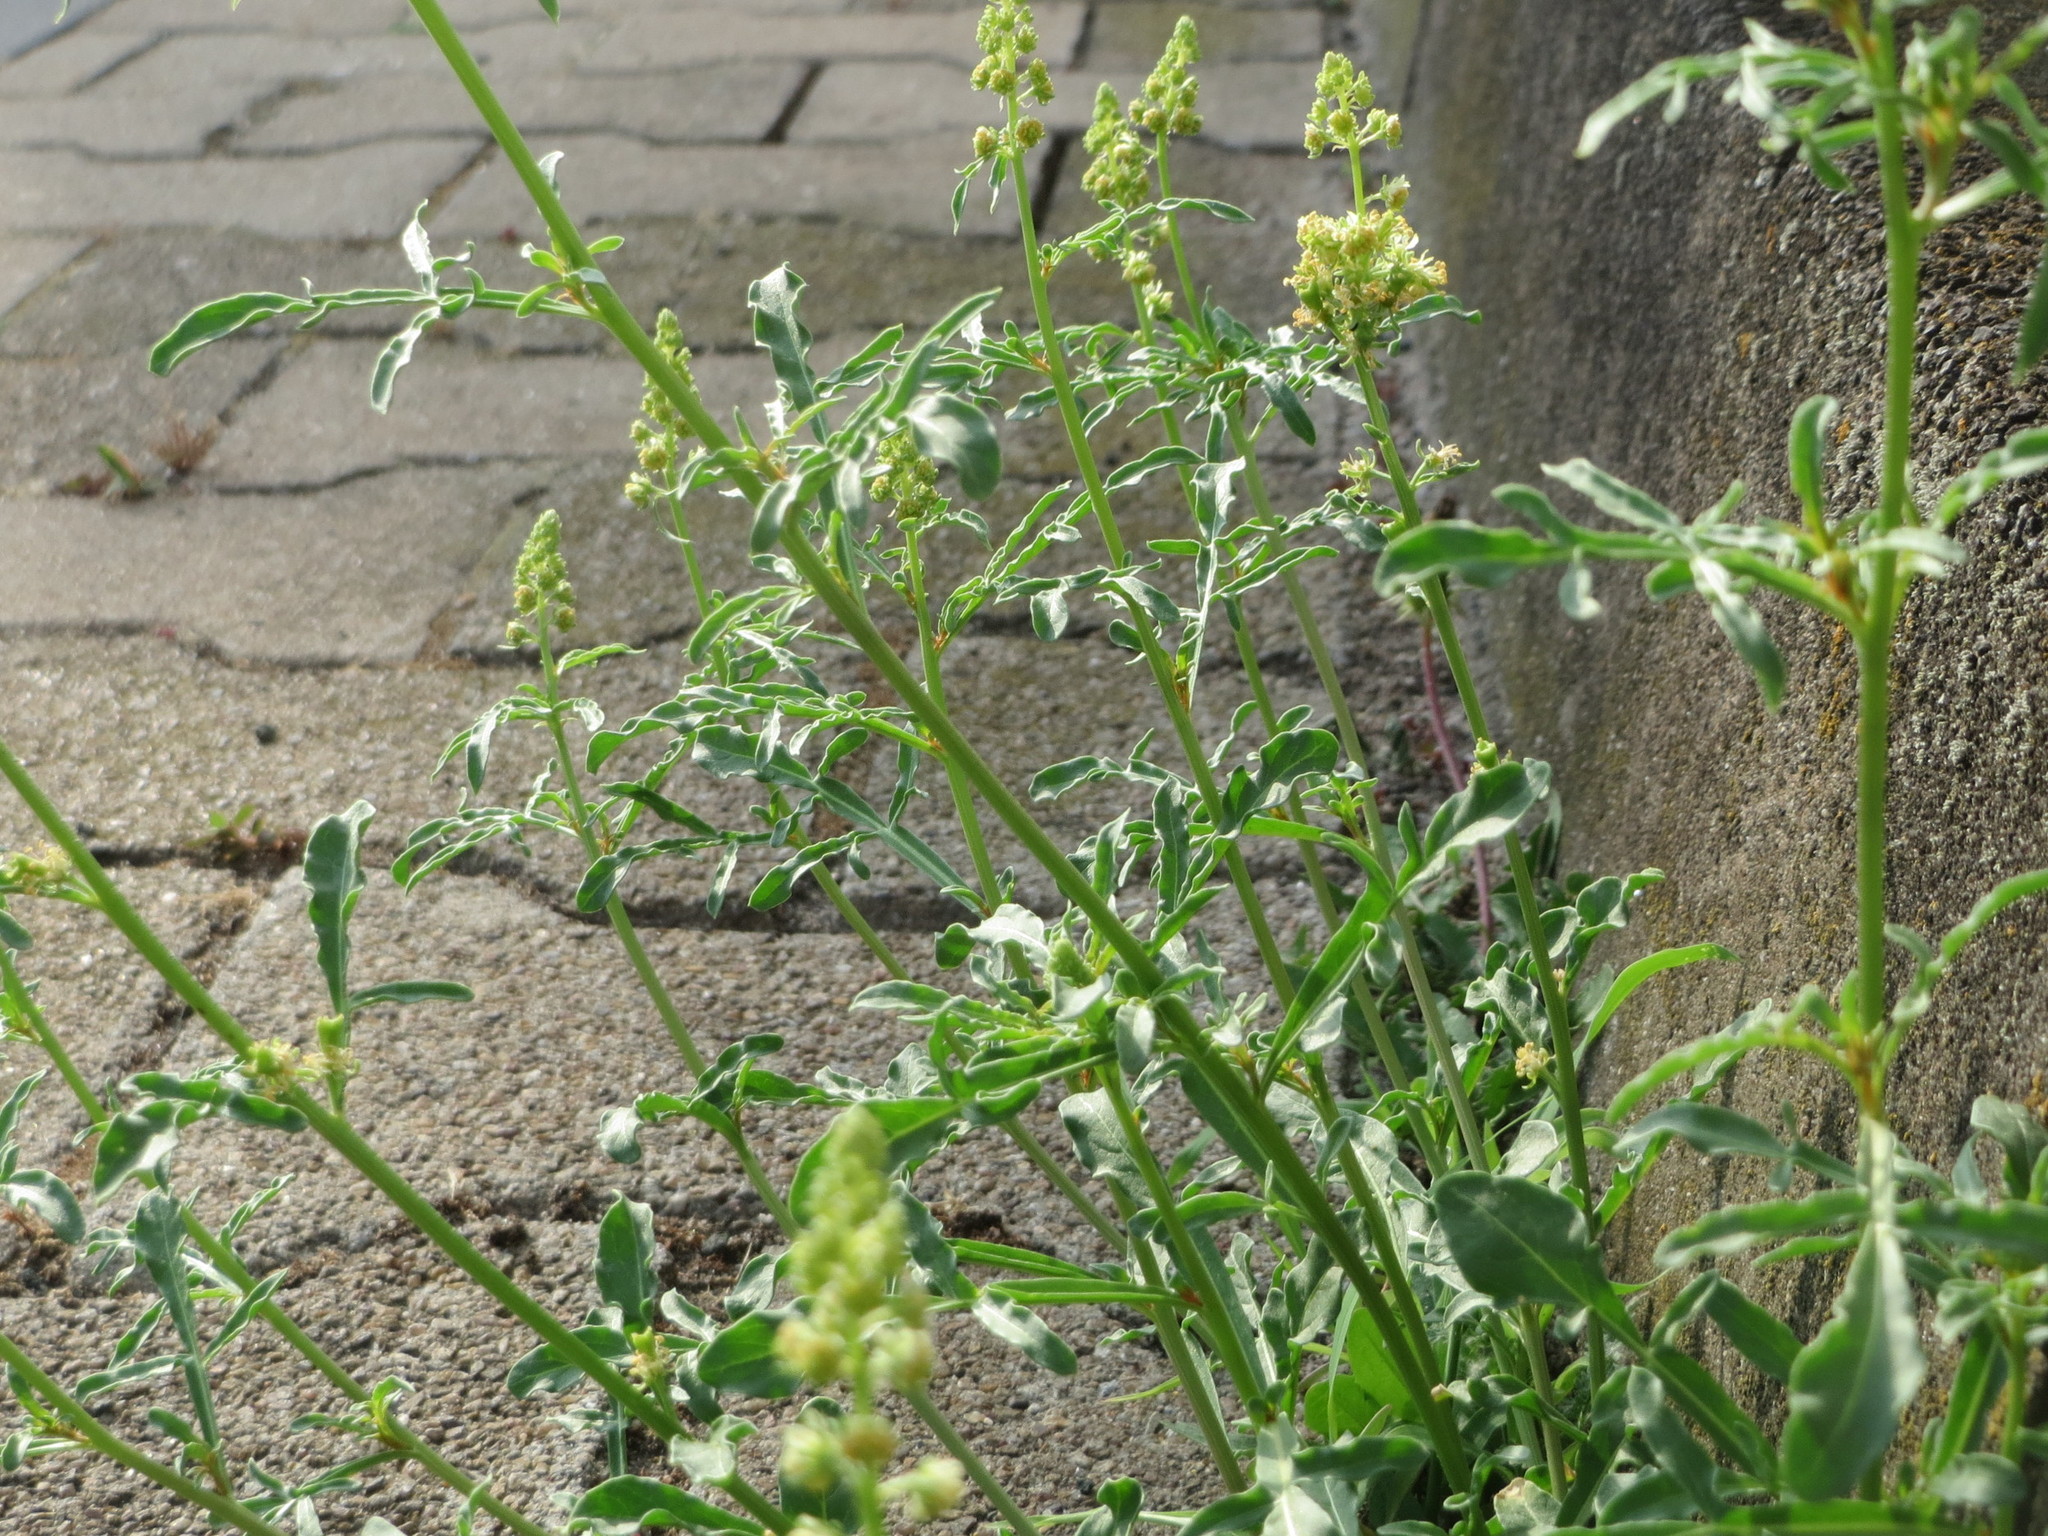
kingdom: Plantae
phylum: Tracheophyta
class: Magnoliopsida
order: Brassicales
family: Resedaceae
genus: Reseda
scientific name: Reseda lutea
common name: Wild mignonette
